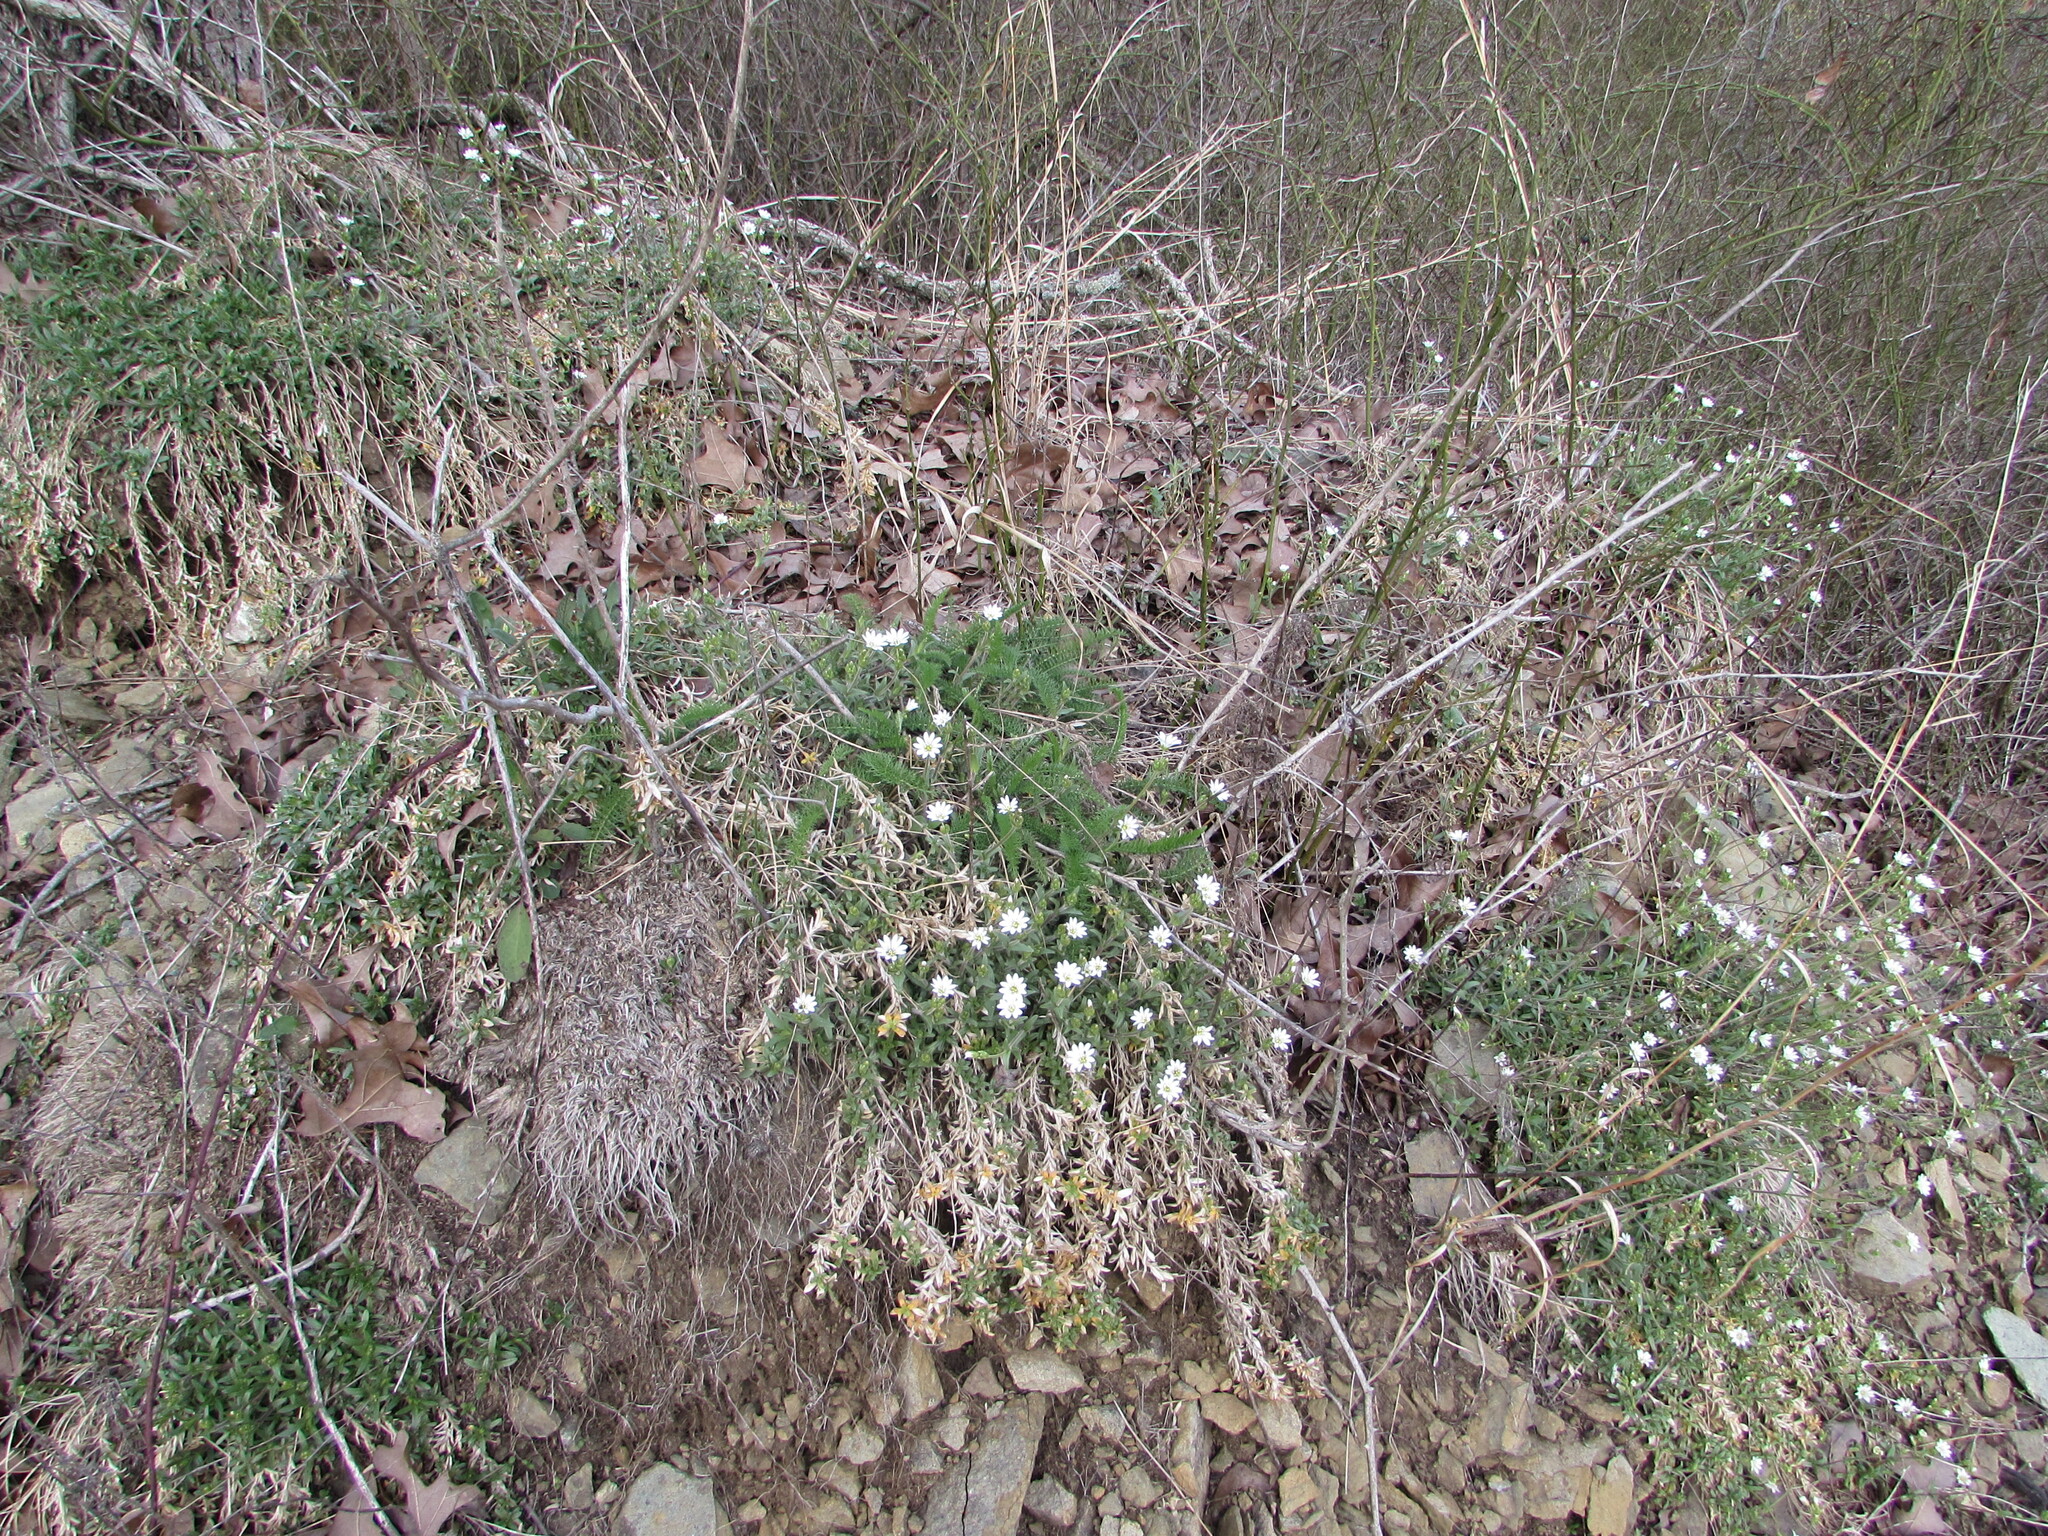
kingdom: Plantae
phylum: Tracheophyta
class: Magnoliopsida
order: Caryophyllales
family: Caryophyllaceae
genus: Cerastium
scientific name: Cerastium velutinum
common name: Barren chickweed
